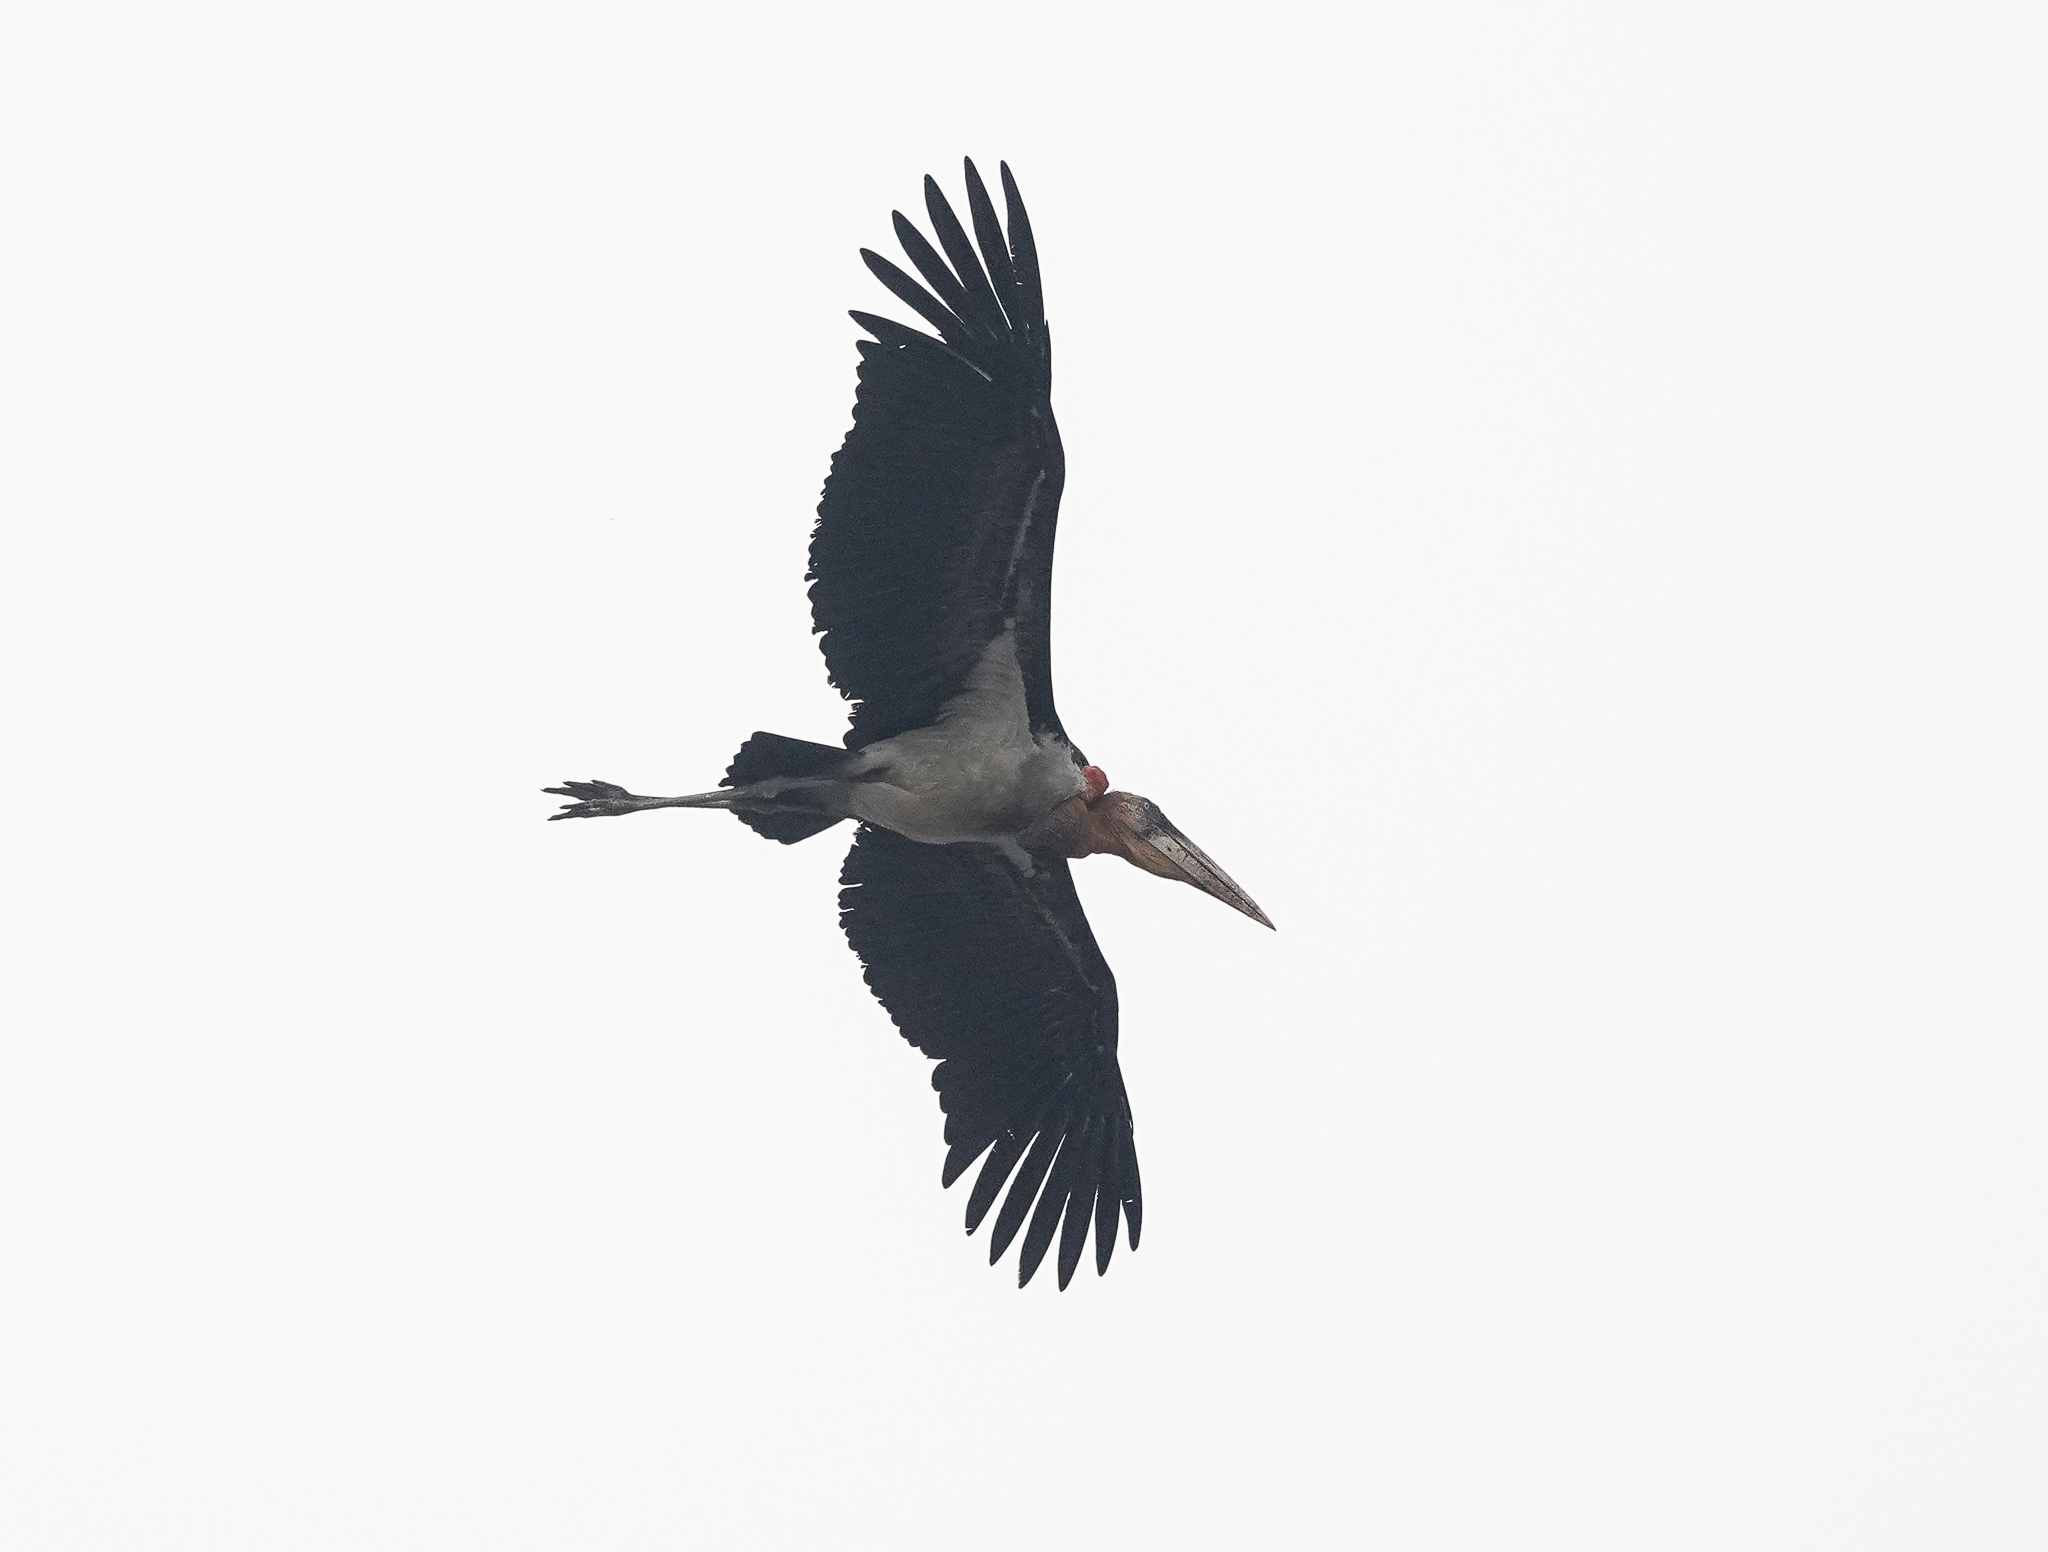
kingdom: Animalia
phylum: Chordata
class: Aves
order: Ciconiiformes
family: Ciconiidae
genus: Leptoptilos
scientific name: Leptoptilos dubius
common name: Greater adjutant
